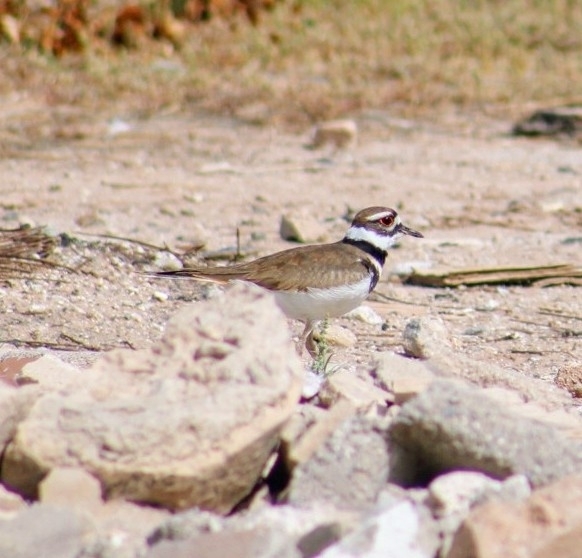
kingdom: Animalia
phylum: Chordata
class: Aves
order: Charadriiformes
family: Charadriidae
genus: Charadrius
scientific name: Charadrius vociferus
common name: Killdeer
